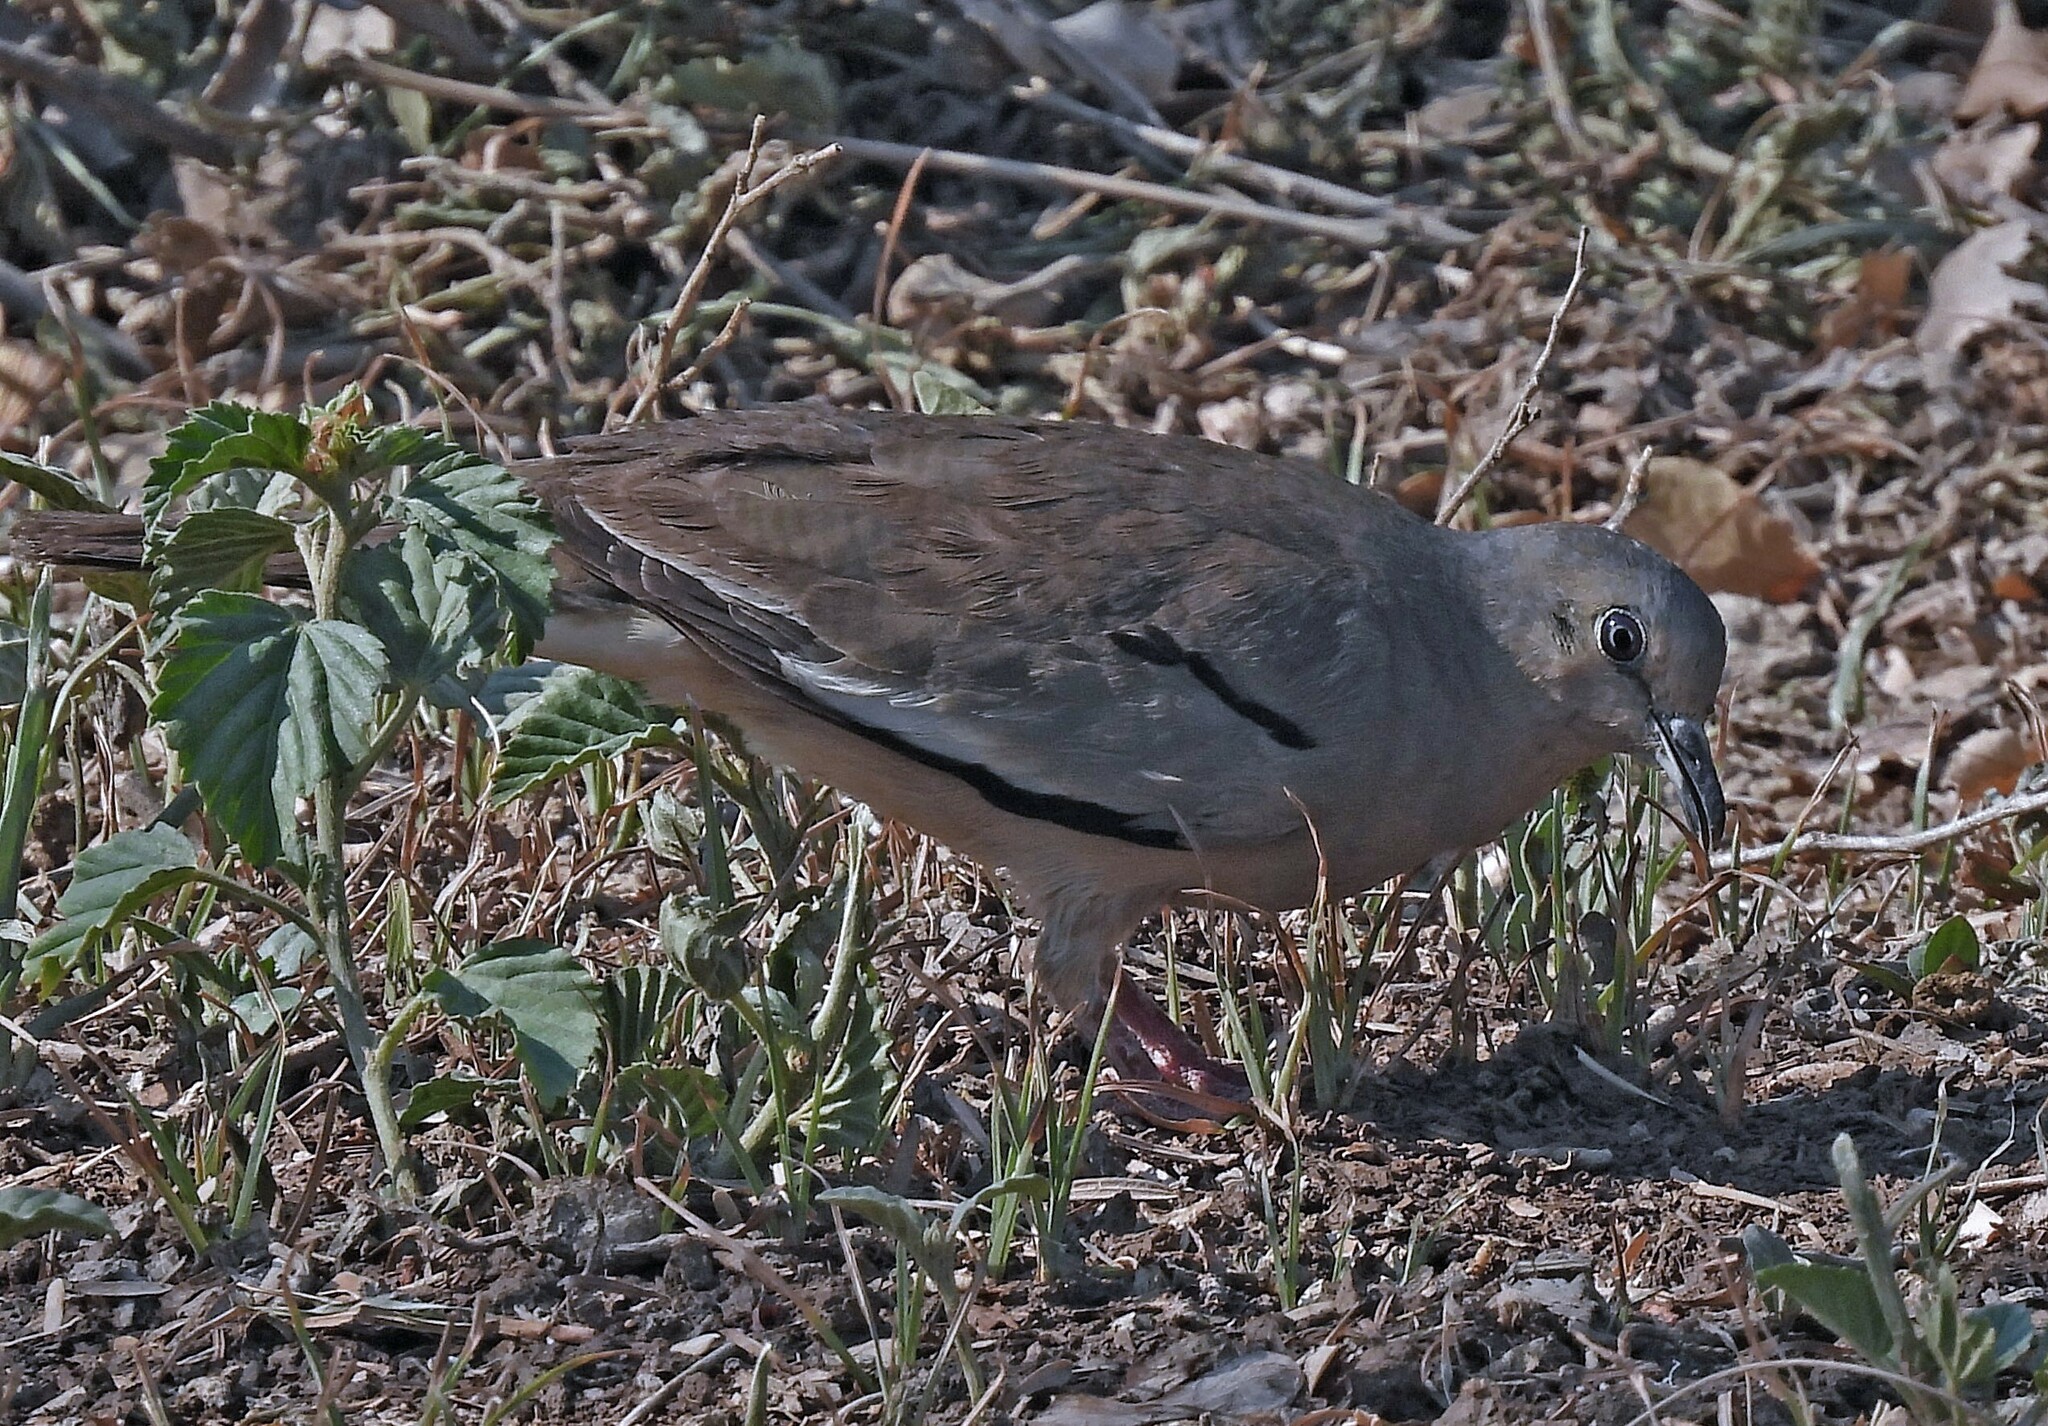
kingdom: Animalia
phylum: Chordata
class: Aves
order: Columbiformes
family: Columbidae
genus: Columbina
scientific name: Columbina picui
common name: Picui ground dove
